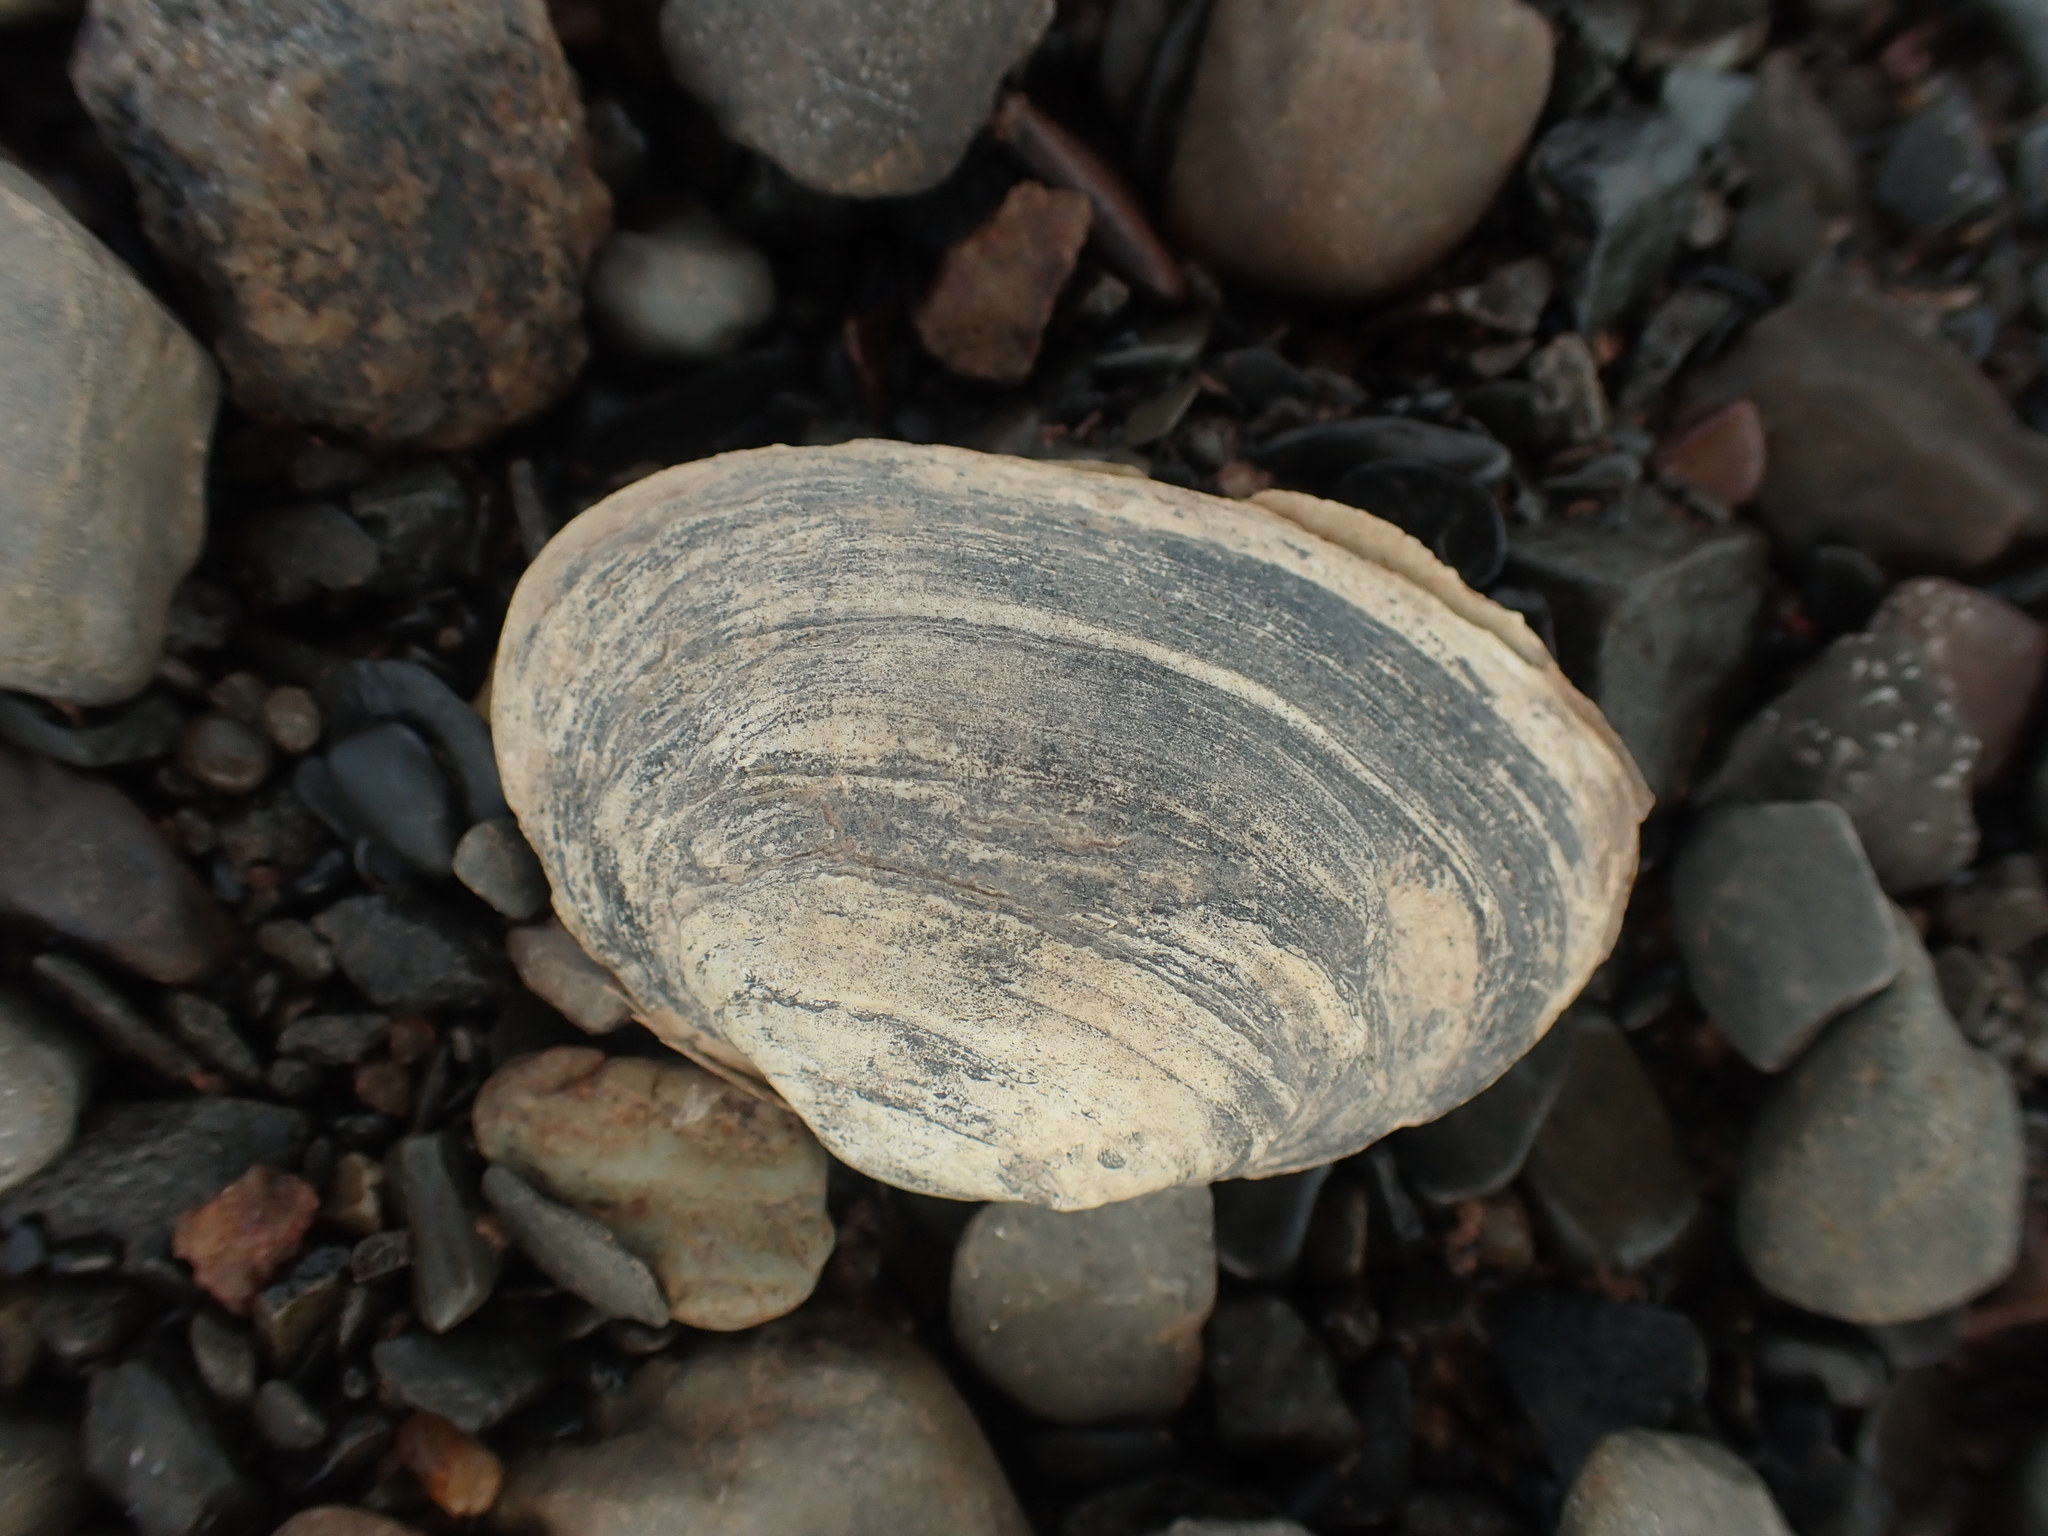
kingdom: Animalia
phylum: Mollusca
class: Bivalvia
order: Myida
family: Myidae
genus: Mya
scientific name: Mya arenaria
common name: Soft-shelled clam
